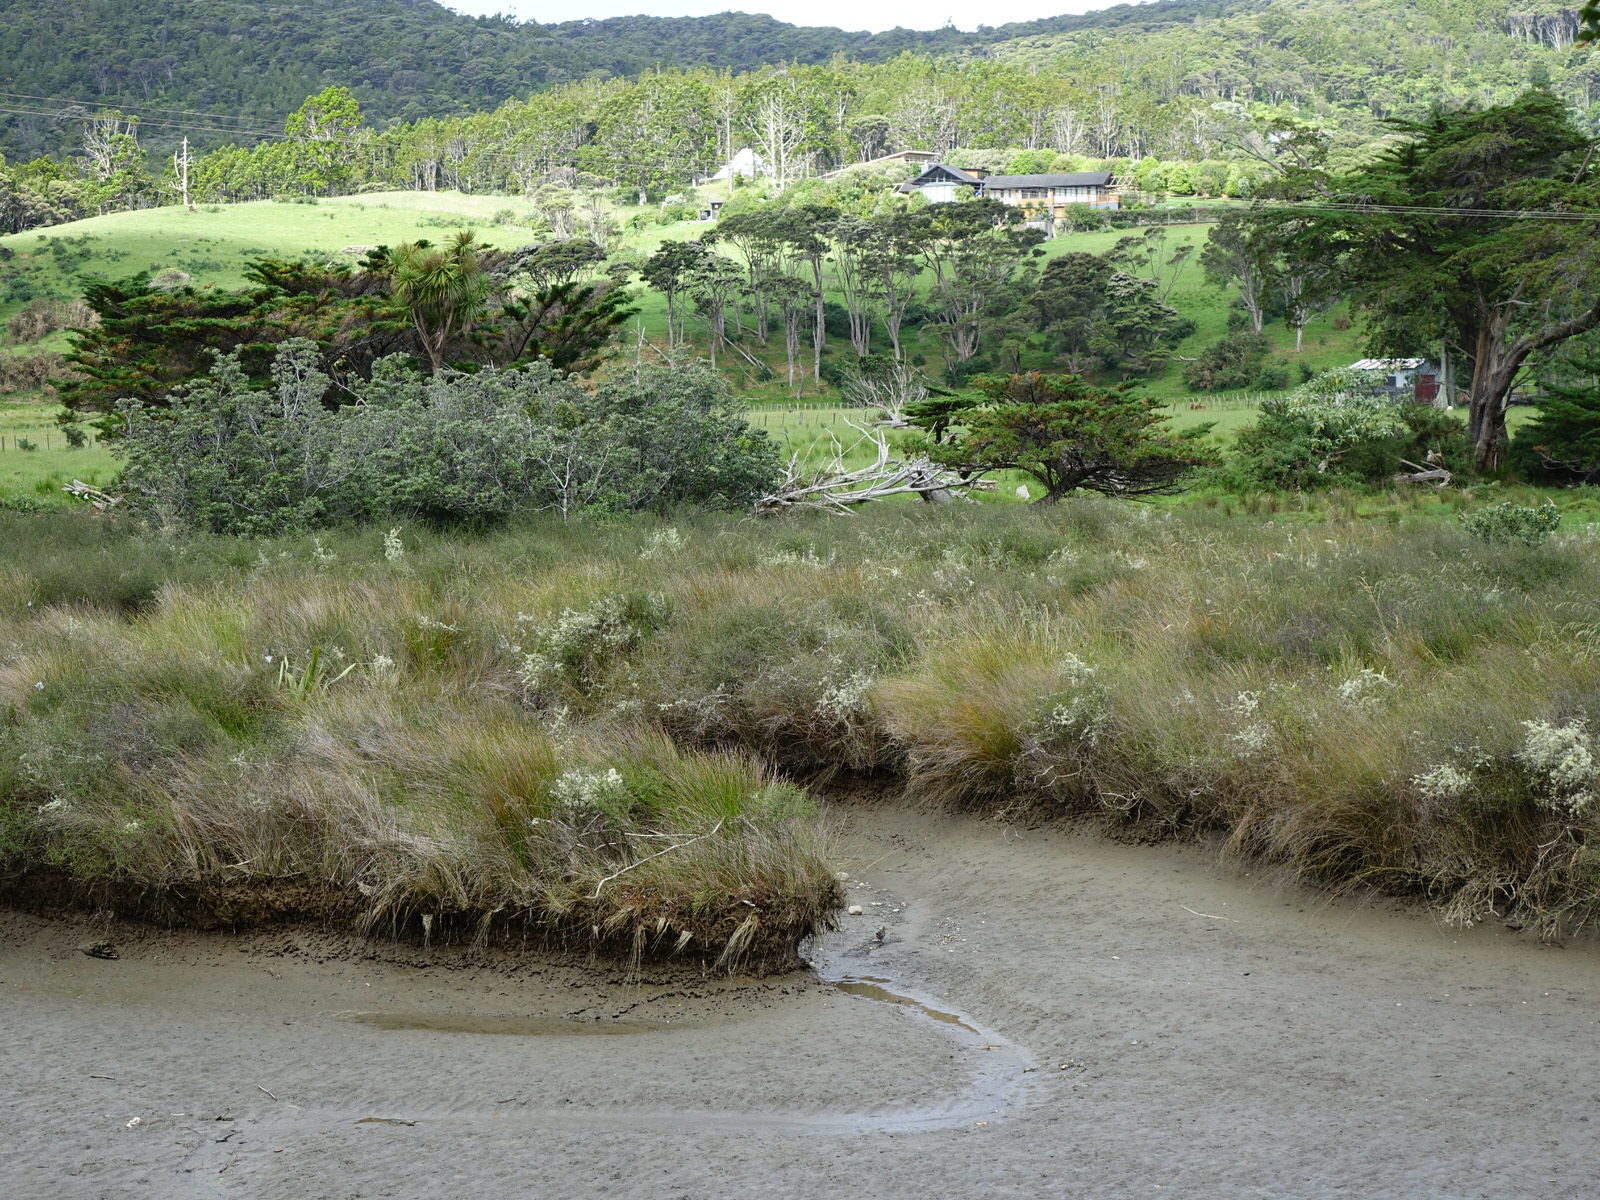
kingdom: Animalia
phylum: Chordata
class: Aves
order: Gruiformes
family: Rallidae
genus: Gallirallus
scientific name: Gallirallus philippensis
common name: Buff-banded rail
